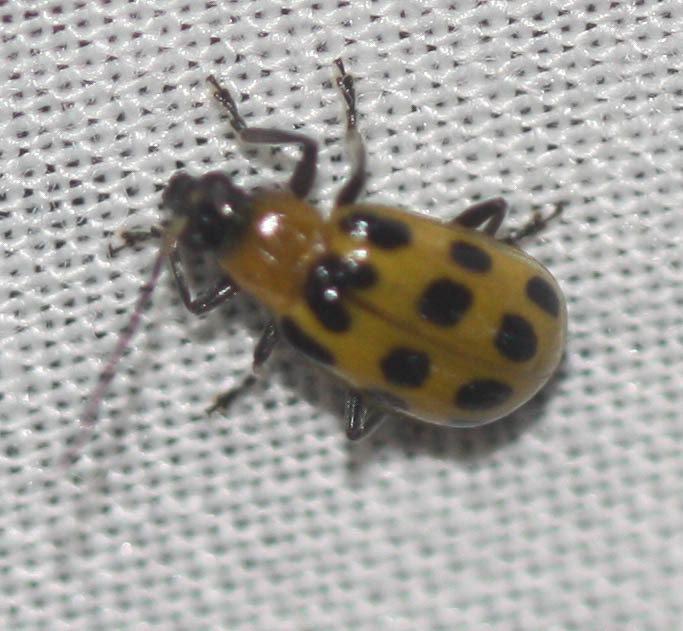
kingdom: Animalia
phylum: Arthropoda
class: Insecta
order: Coleoptera
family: Chrysomelidae
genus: Diabrotica
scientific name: Diabrotica undecimpunctata
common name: Spotted cucumber beetle
